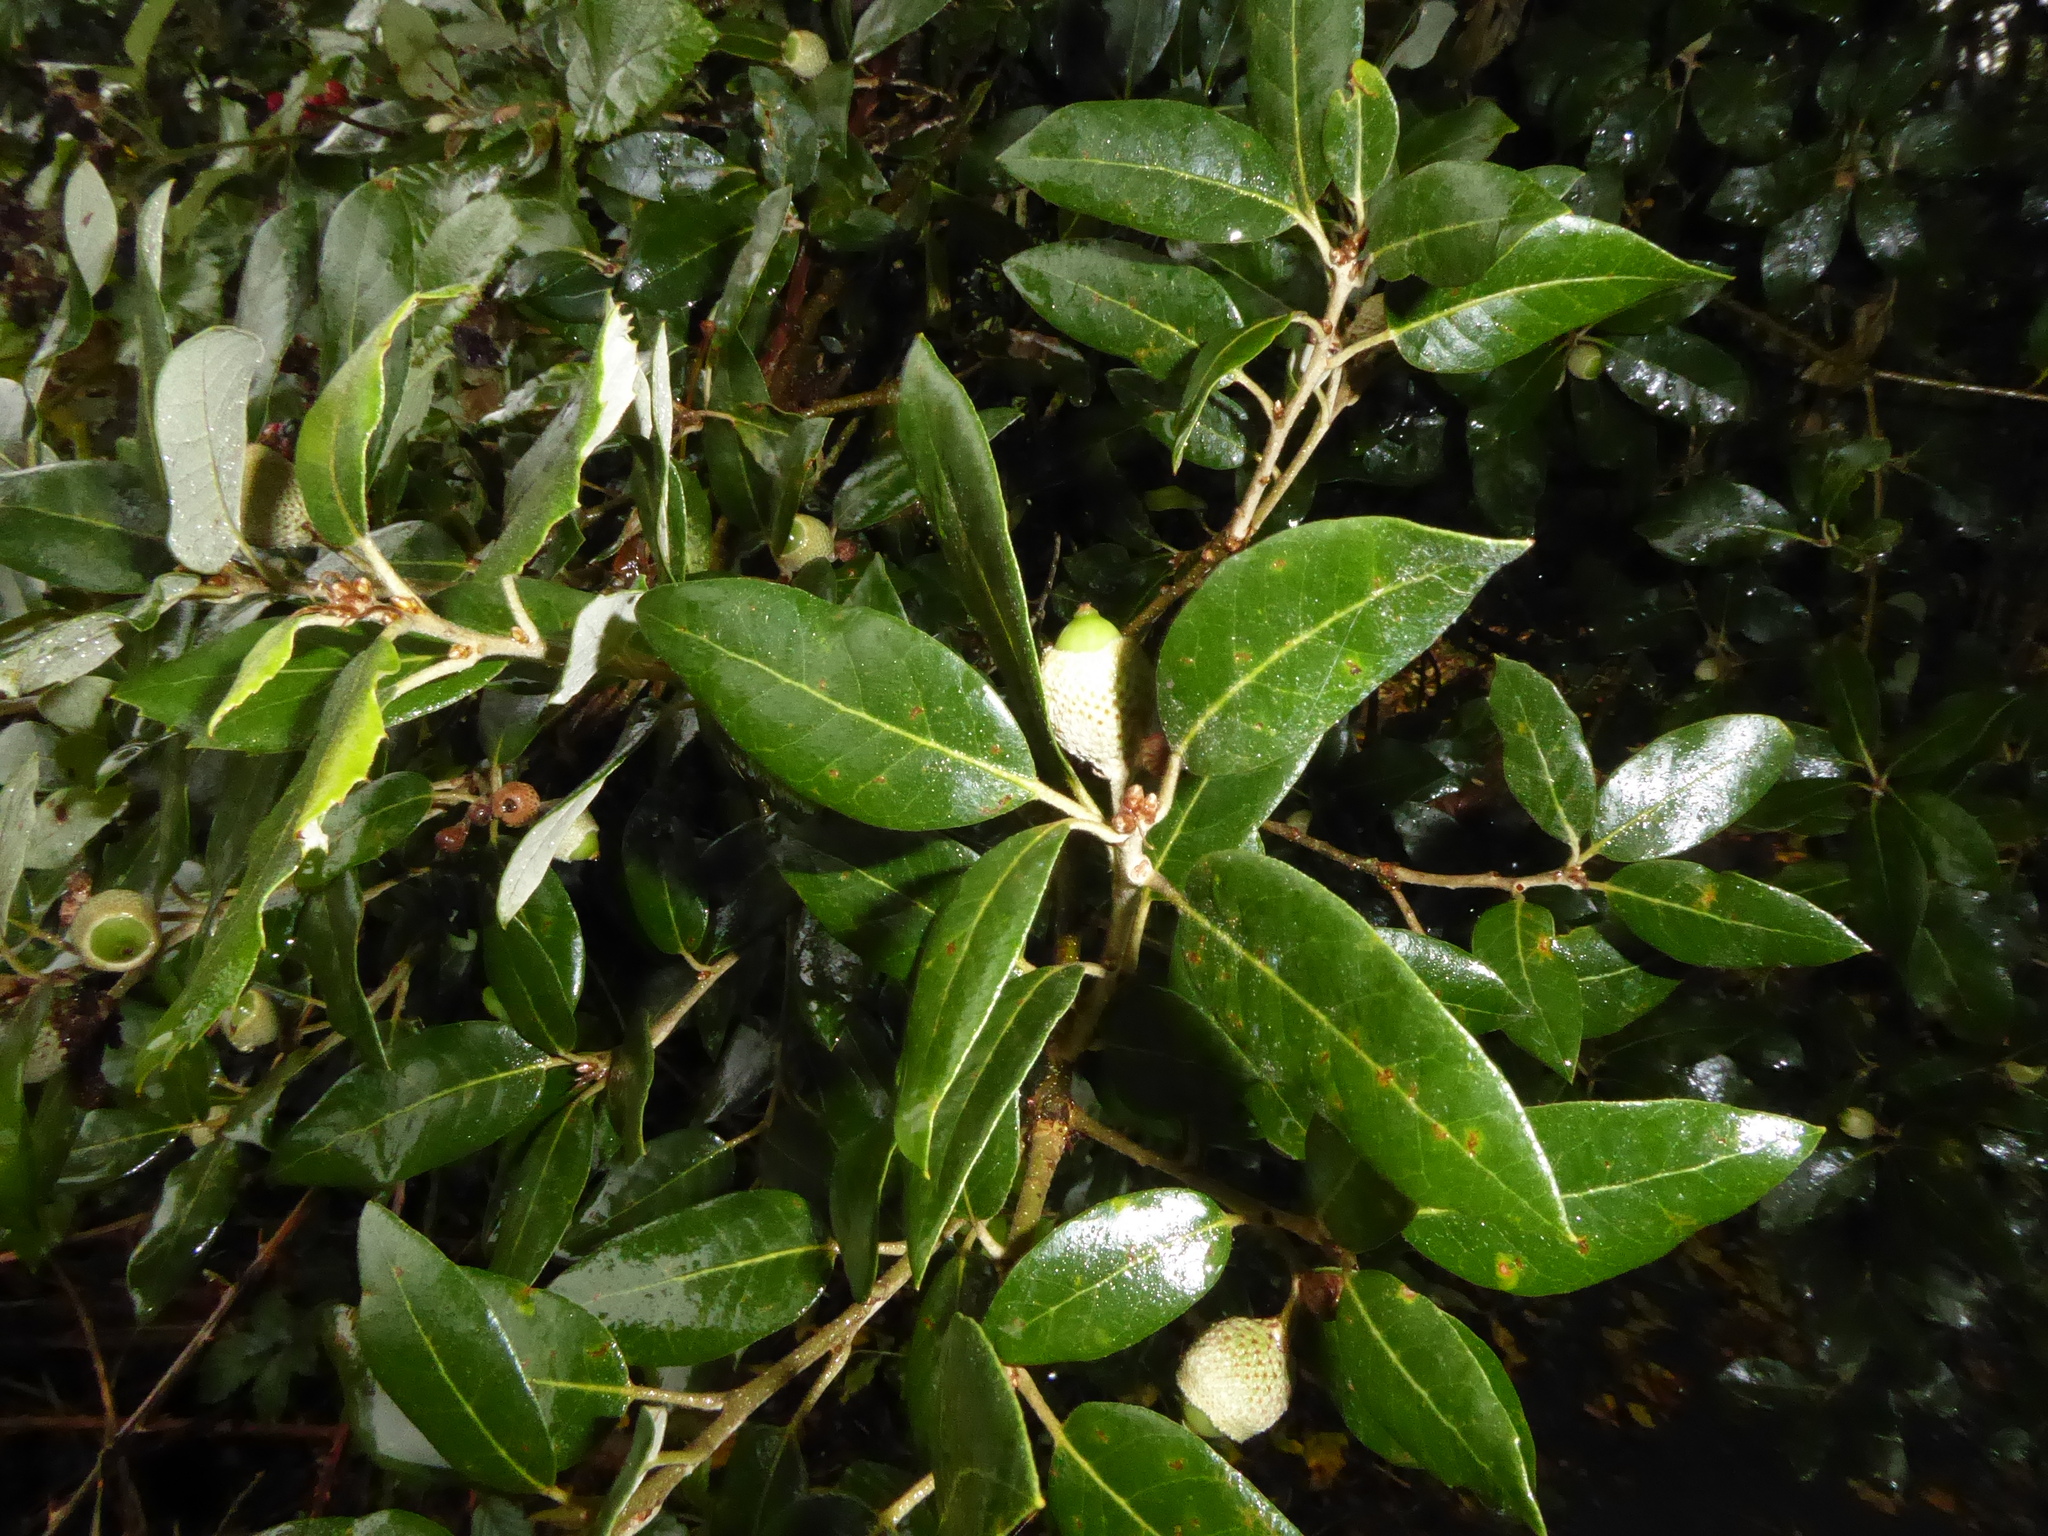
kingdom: Plantae
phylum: Tracheophyta
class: Magnoliopsida
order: Fagales
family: Fagaceae
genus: Quercus
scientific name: Quercus ilex
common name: Evergreen oak
